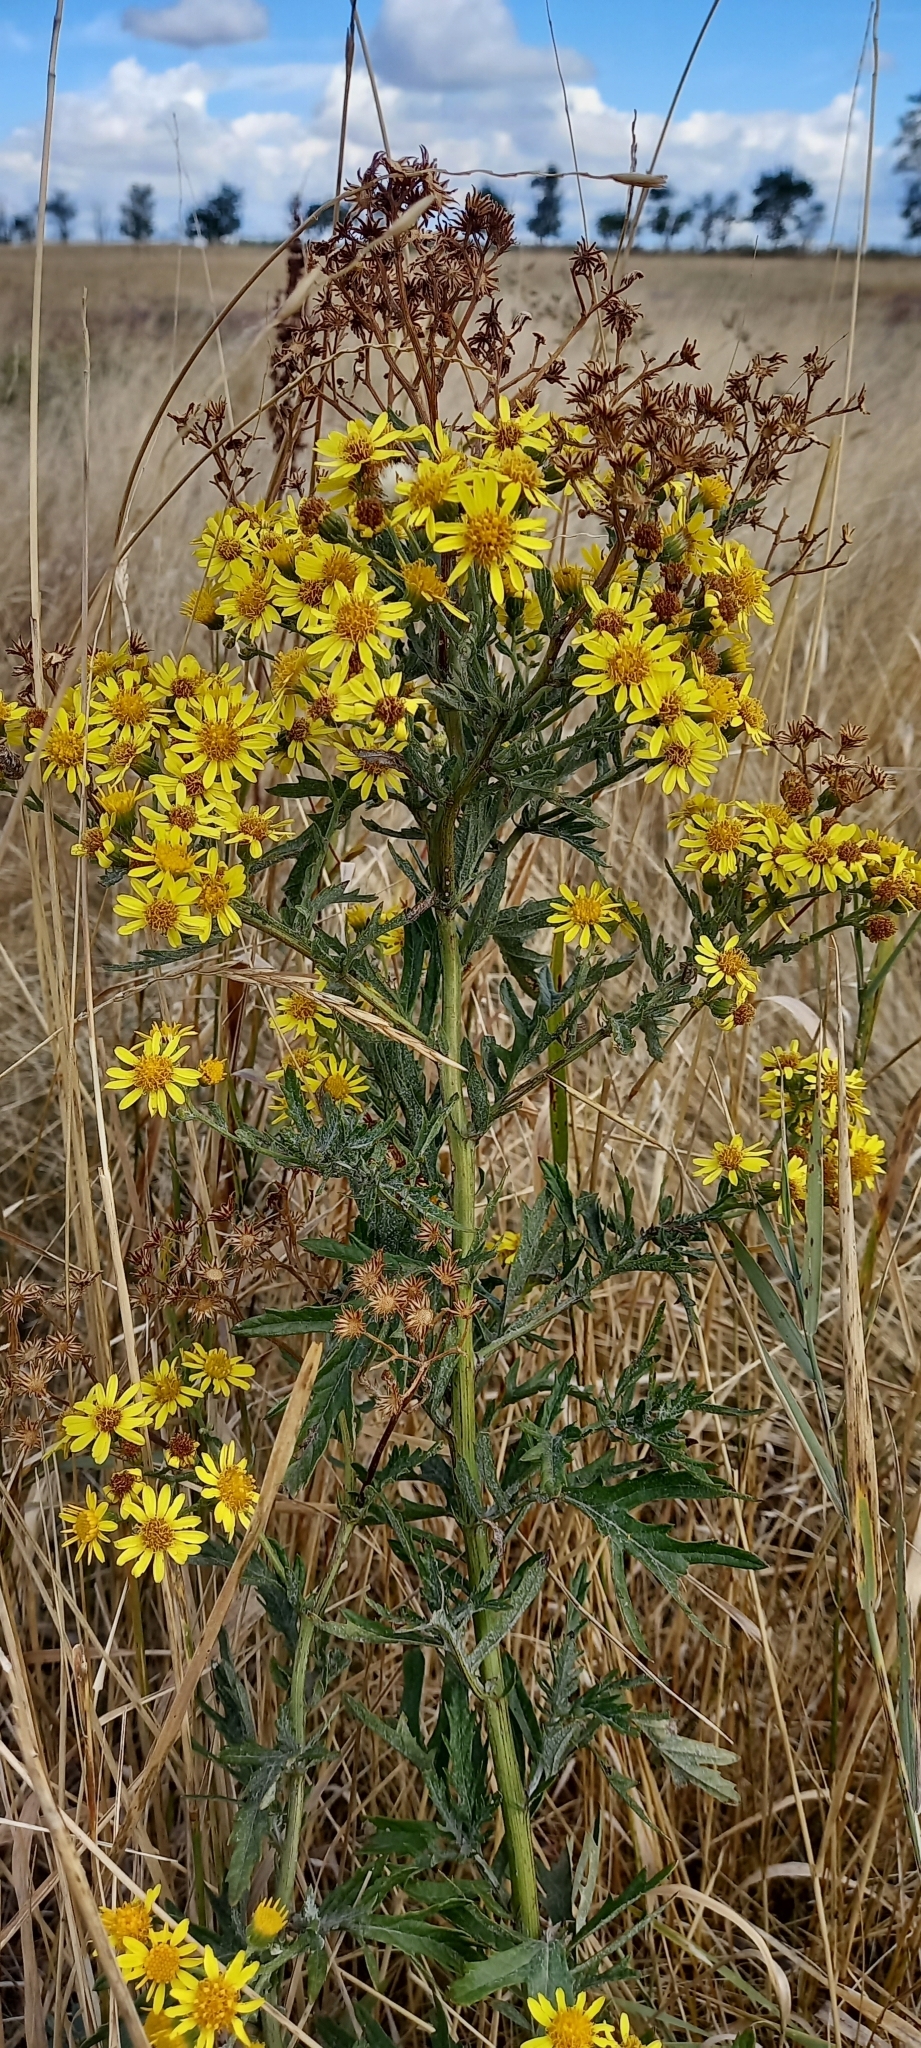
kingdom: Plantae
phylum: Tracheophyta
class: Magnoliopsida
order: Asterales
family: Asteraceae
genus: Jacobaea
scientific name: Jacobaea erucifolia
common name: Hoary ragwort
